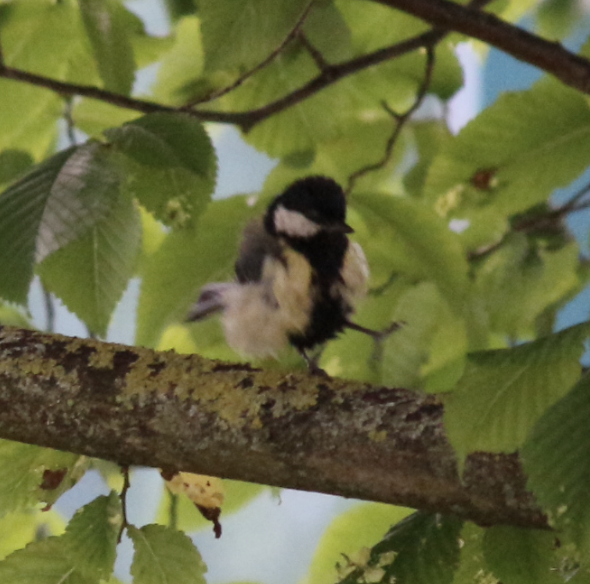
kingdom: Animalia
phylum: Chordata
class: Aves
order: Passeriformes
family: Paridae
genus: Parus
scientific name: Parus major
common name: Great tit
